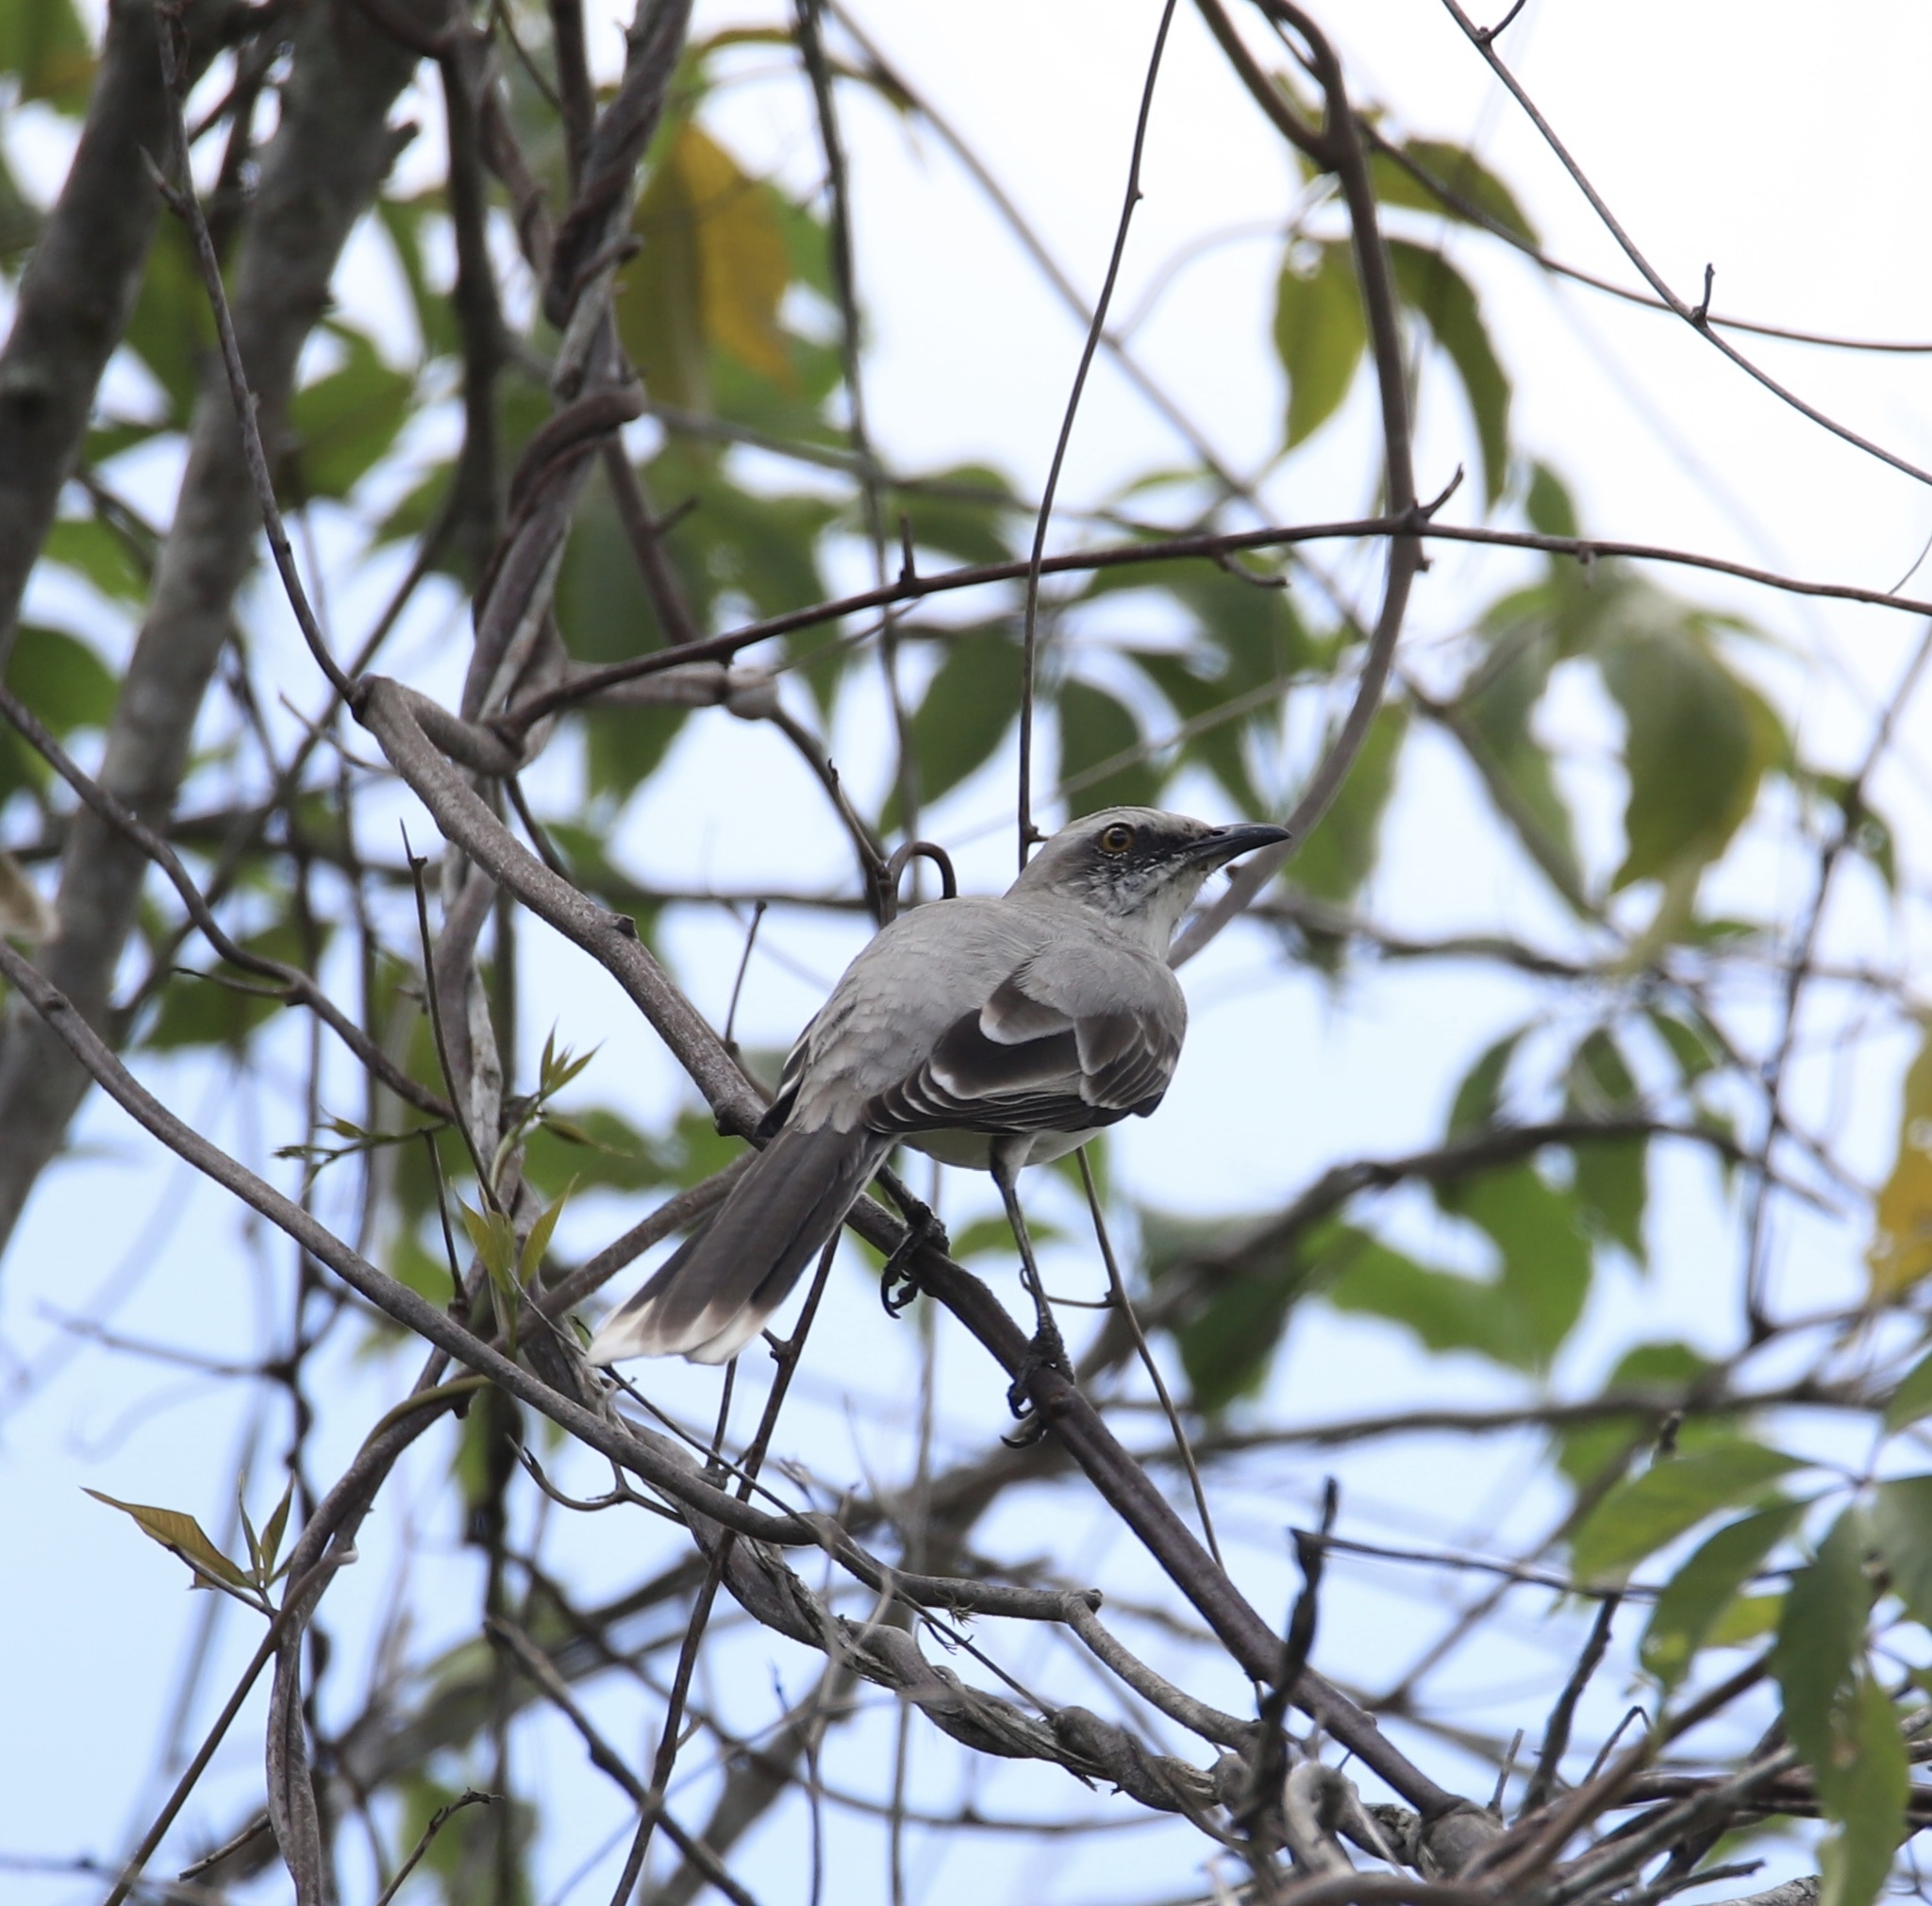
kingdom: Animalia
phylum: Chordata
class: Aves
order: Passeriformes
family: Mimidae
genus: Mimus
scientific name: Mimus gilvus
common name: Tropical mockingbird
